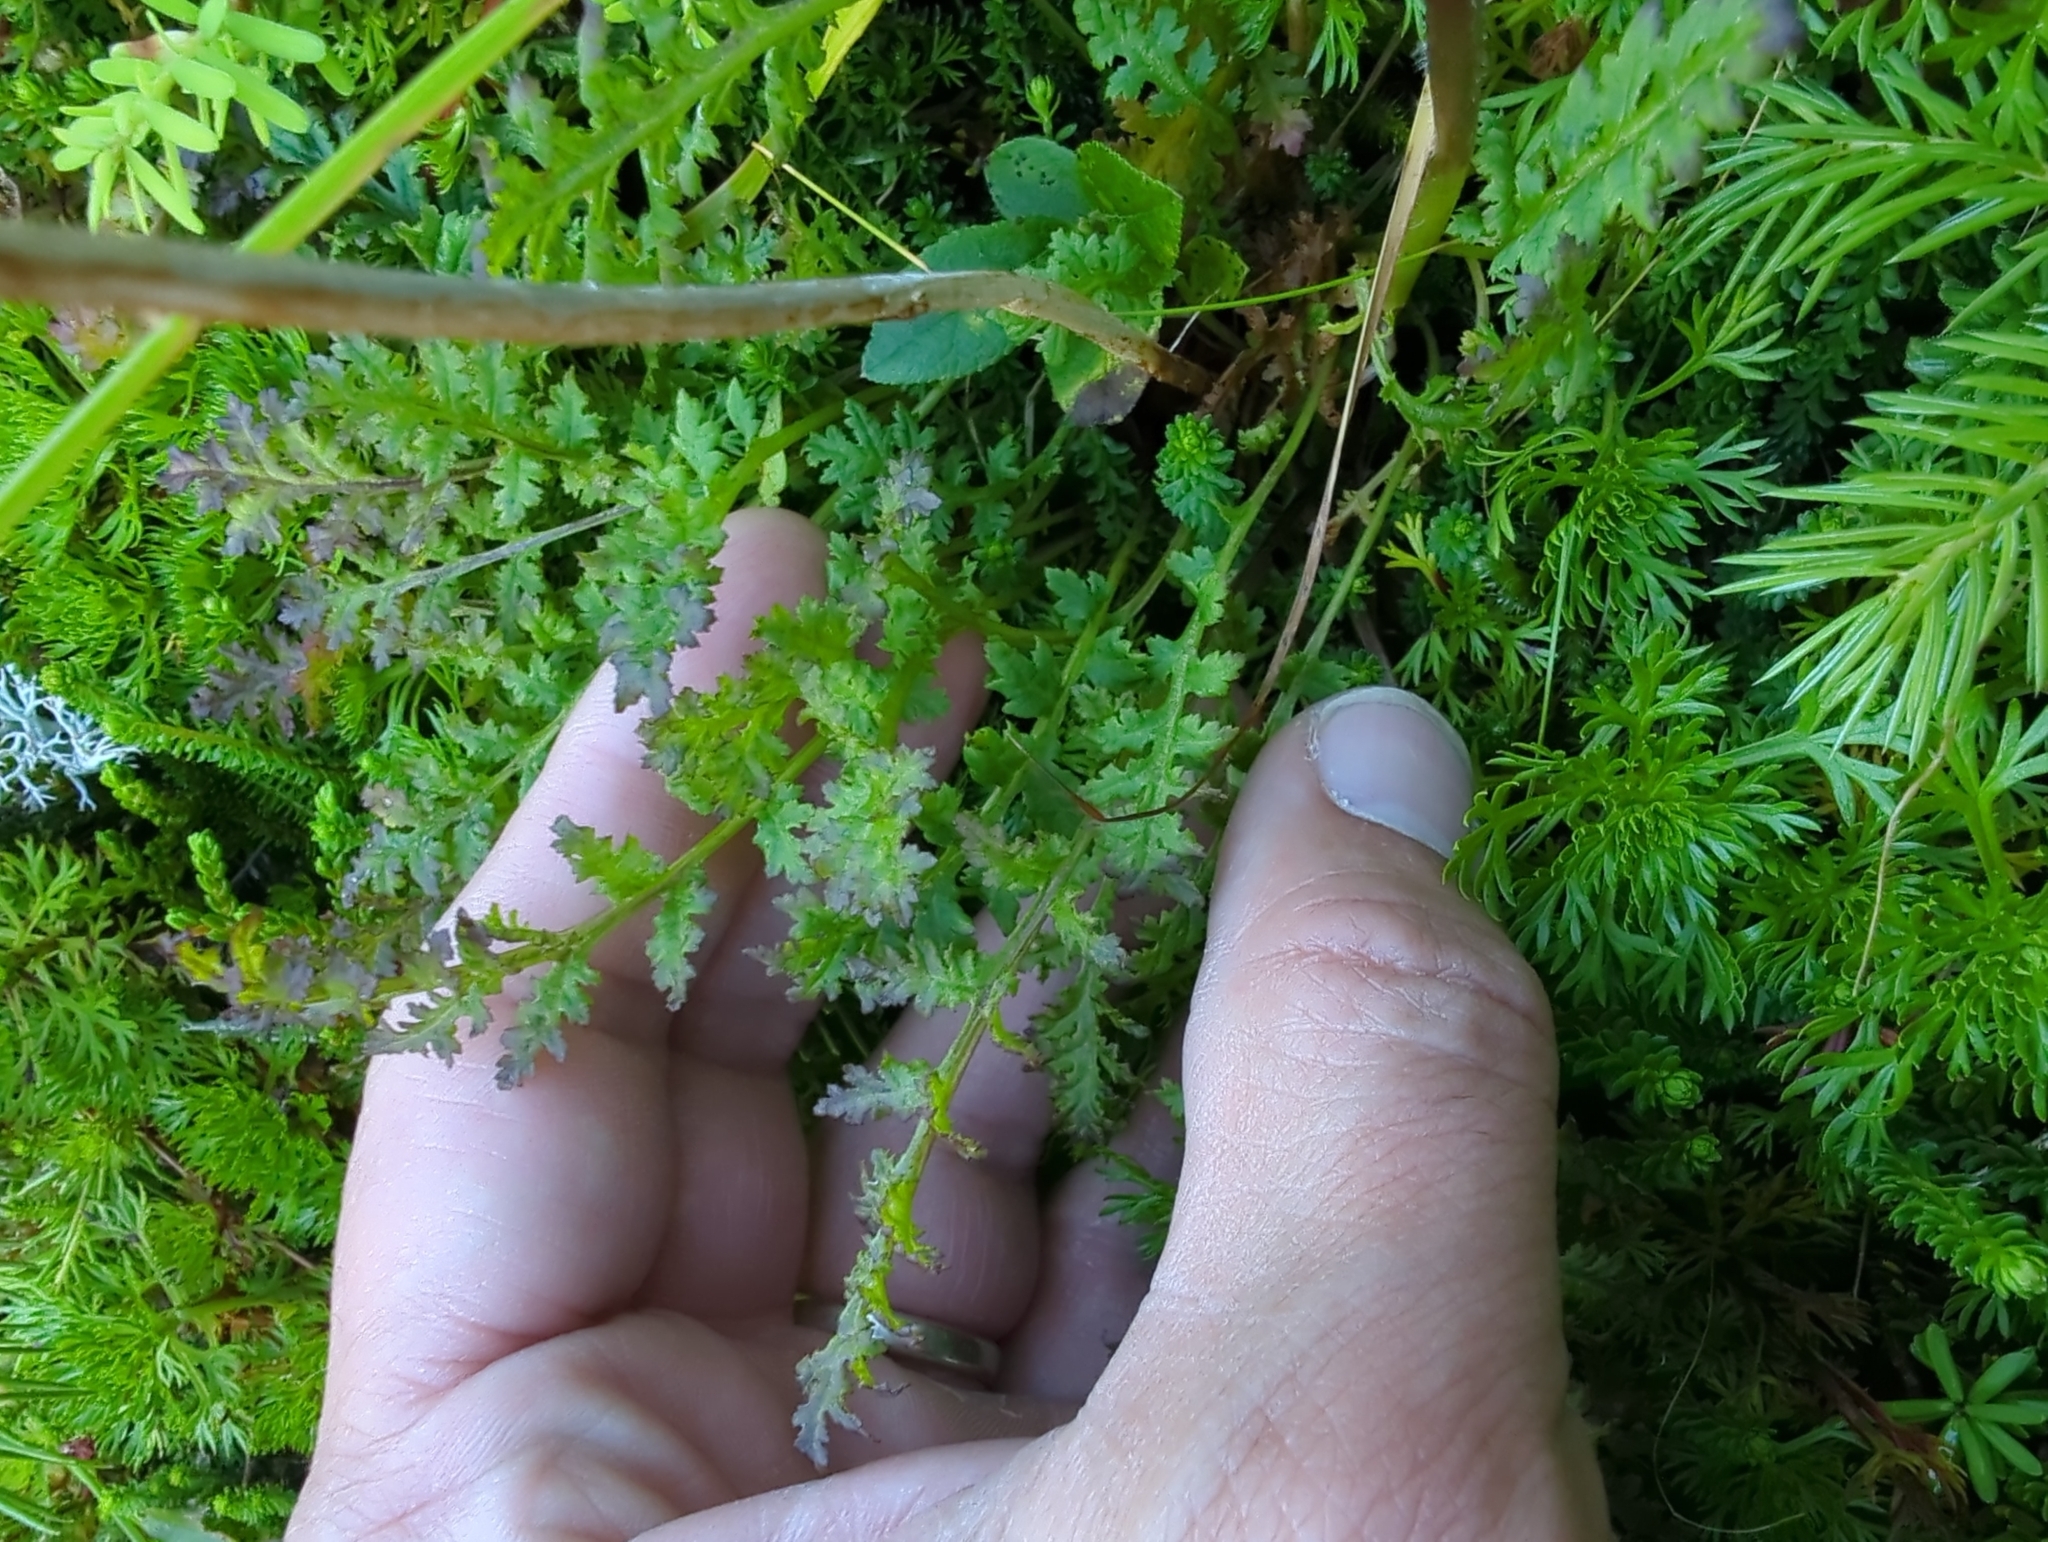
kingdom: Plantae
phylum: Tracheophyta
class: Magnoliopsida
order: Lamiales
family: Orobanchaceae
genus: Pedicularis
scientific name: Pedicularis ornithorhynchos
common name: Bird's-beak lousewort
